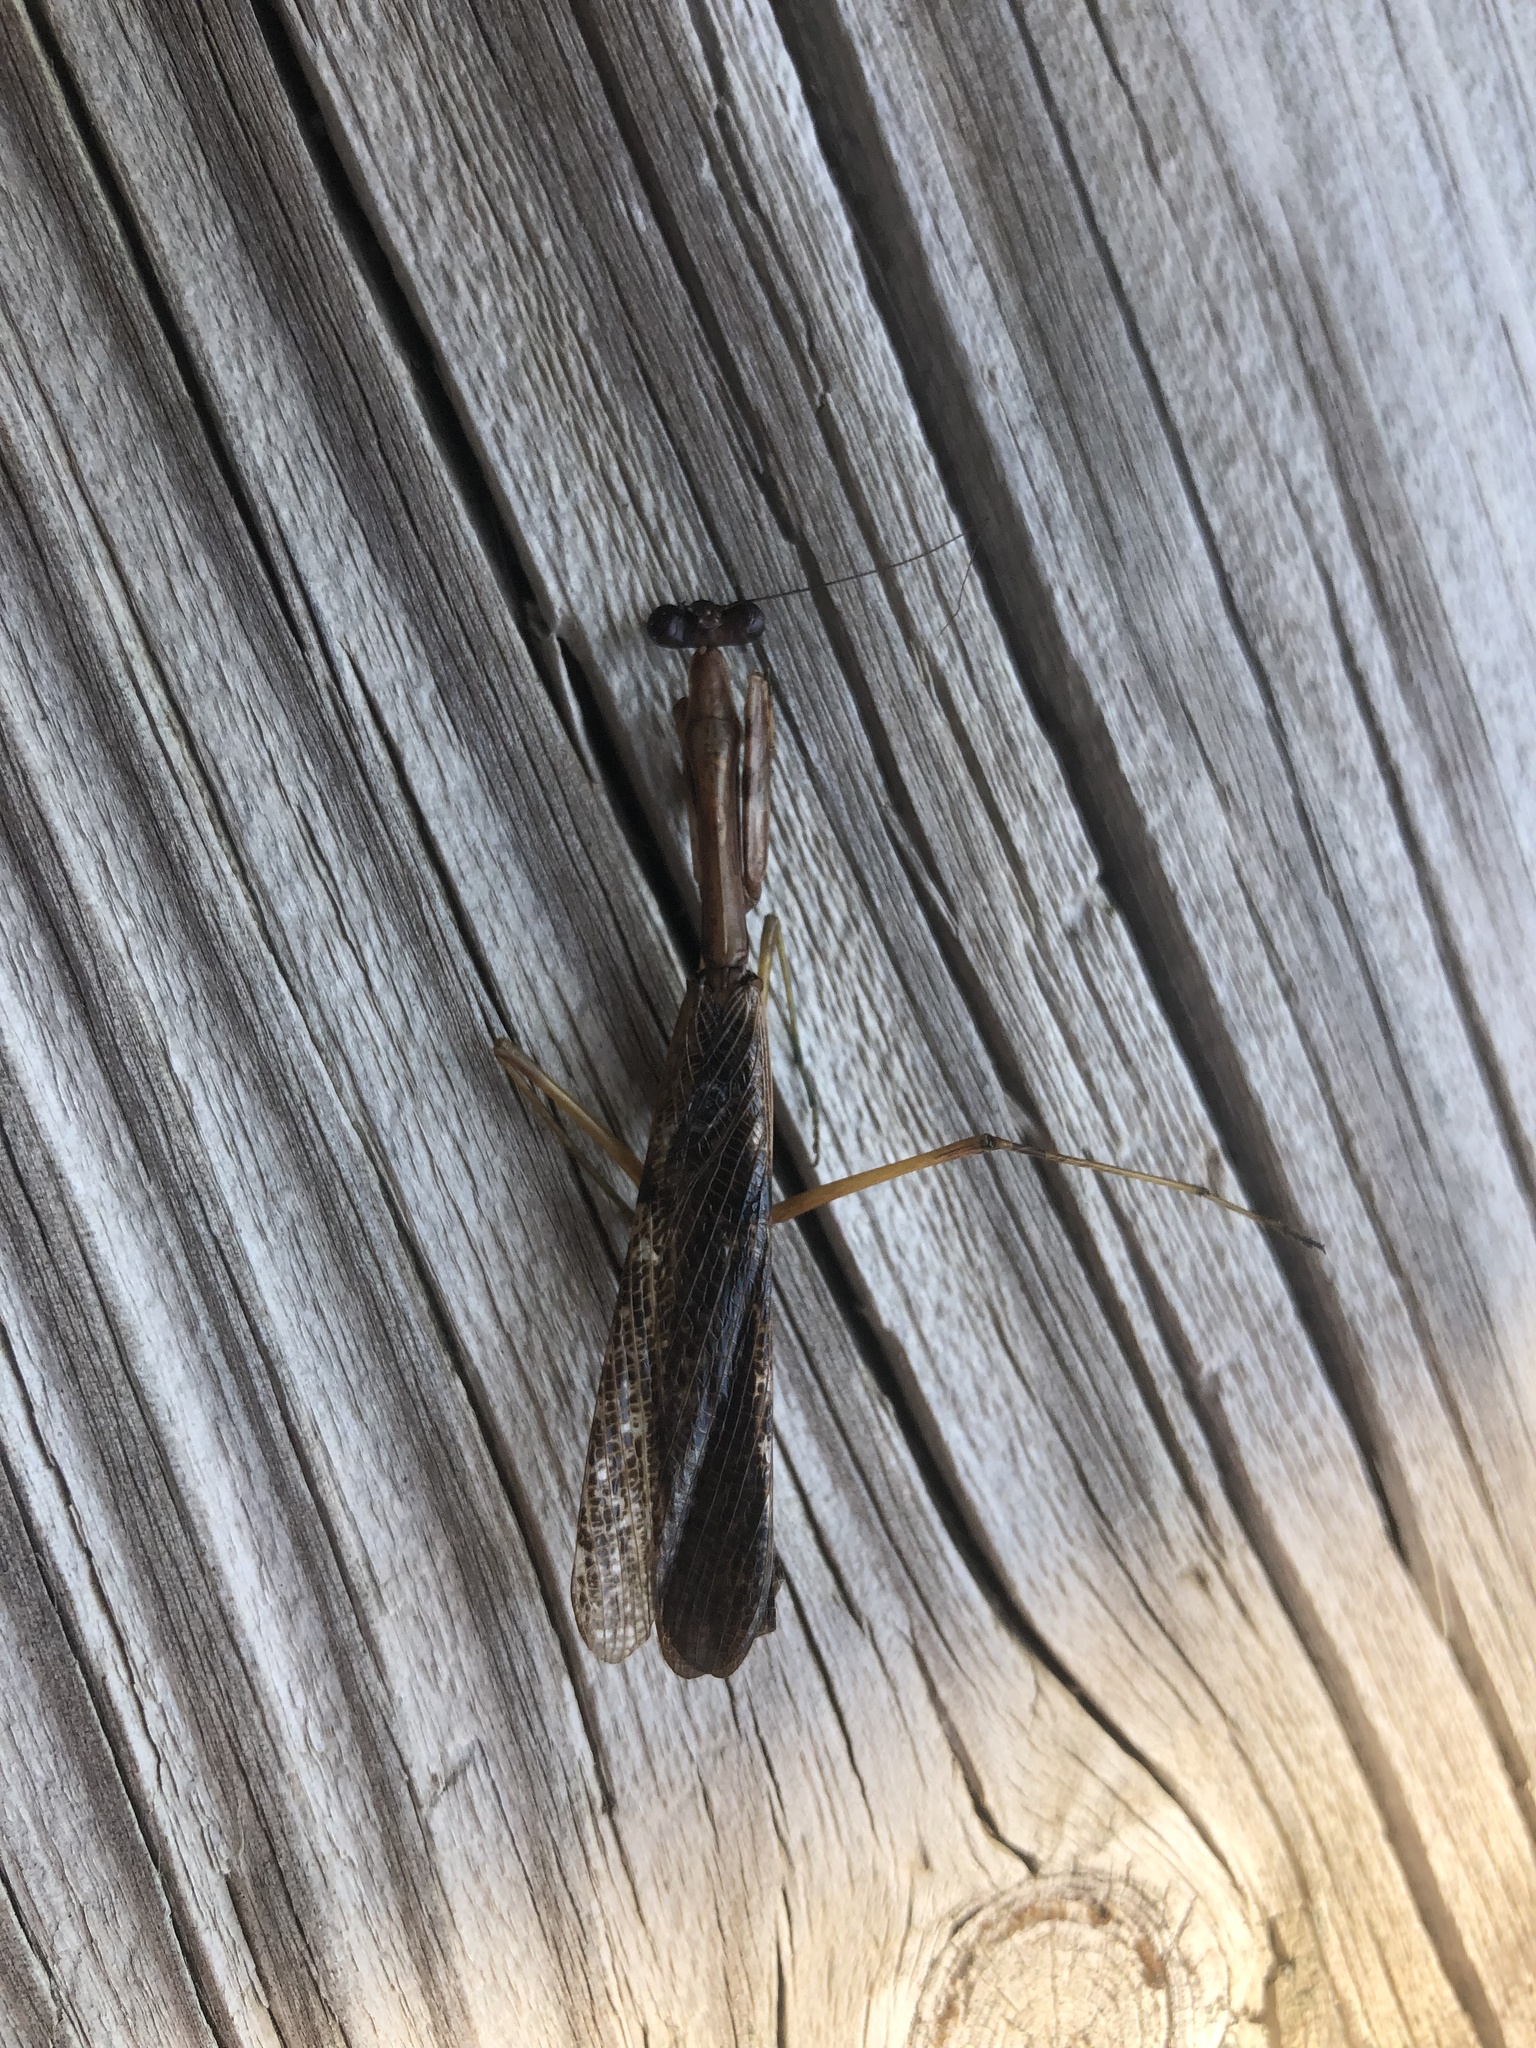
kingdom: Animalia
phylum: Arthropoda
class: Insecta
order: Mantodea
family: Mantidae
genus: Stagmomantis
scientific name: Stagmomantis carolina
